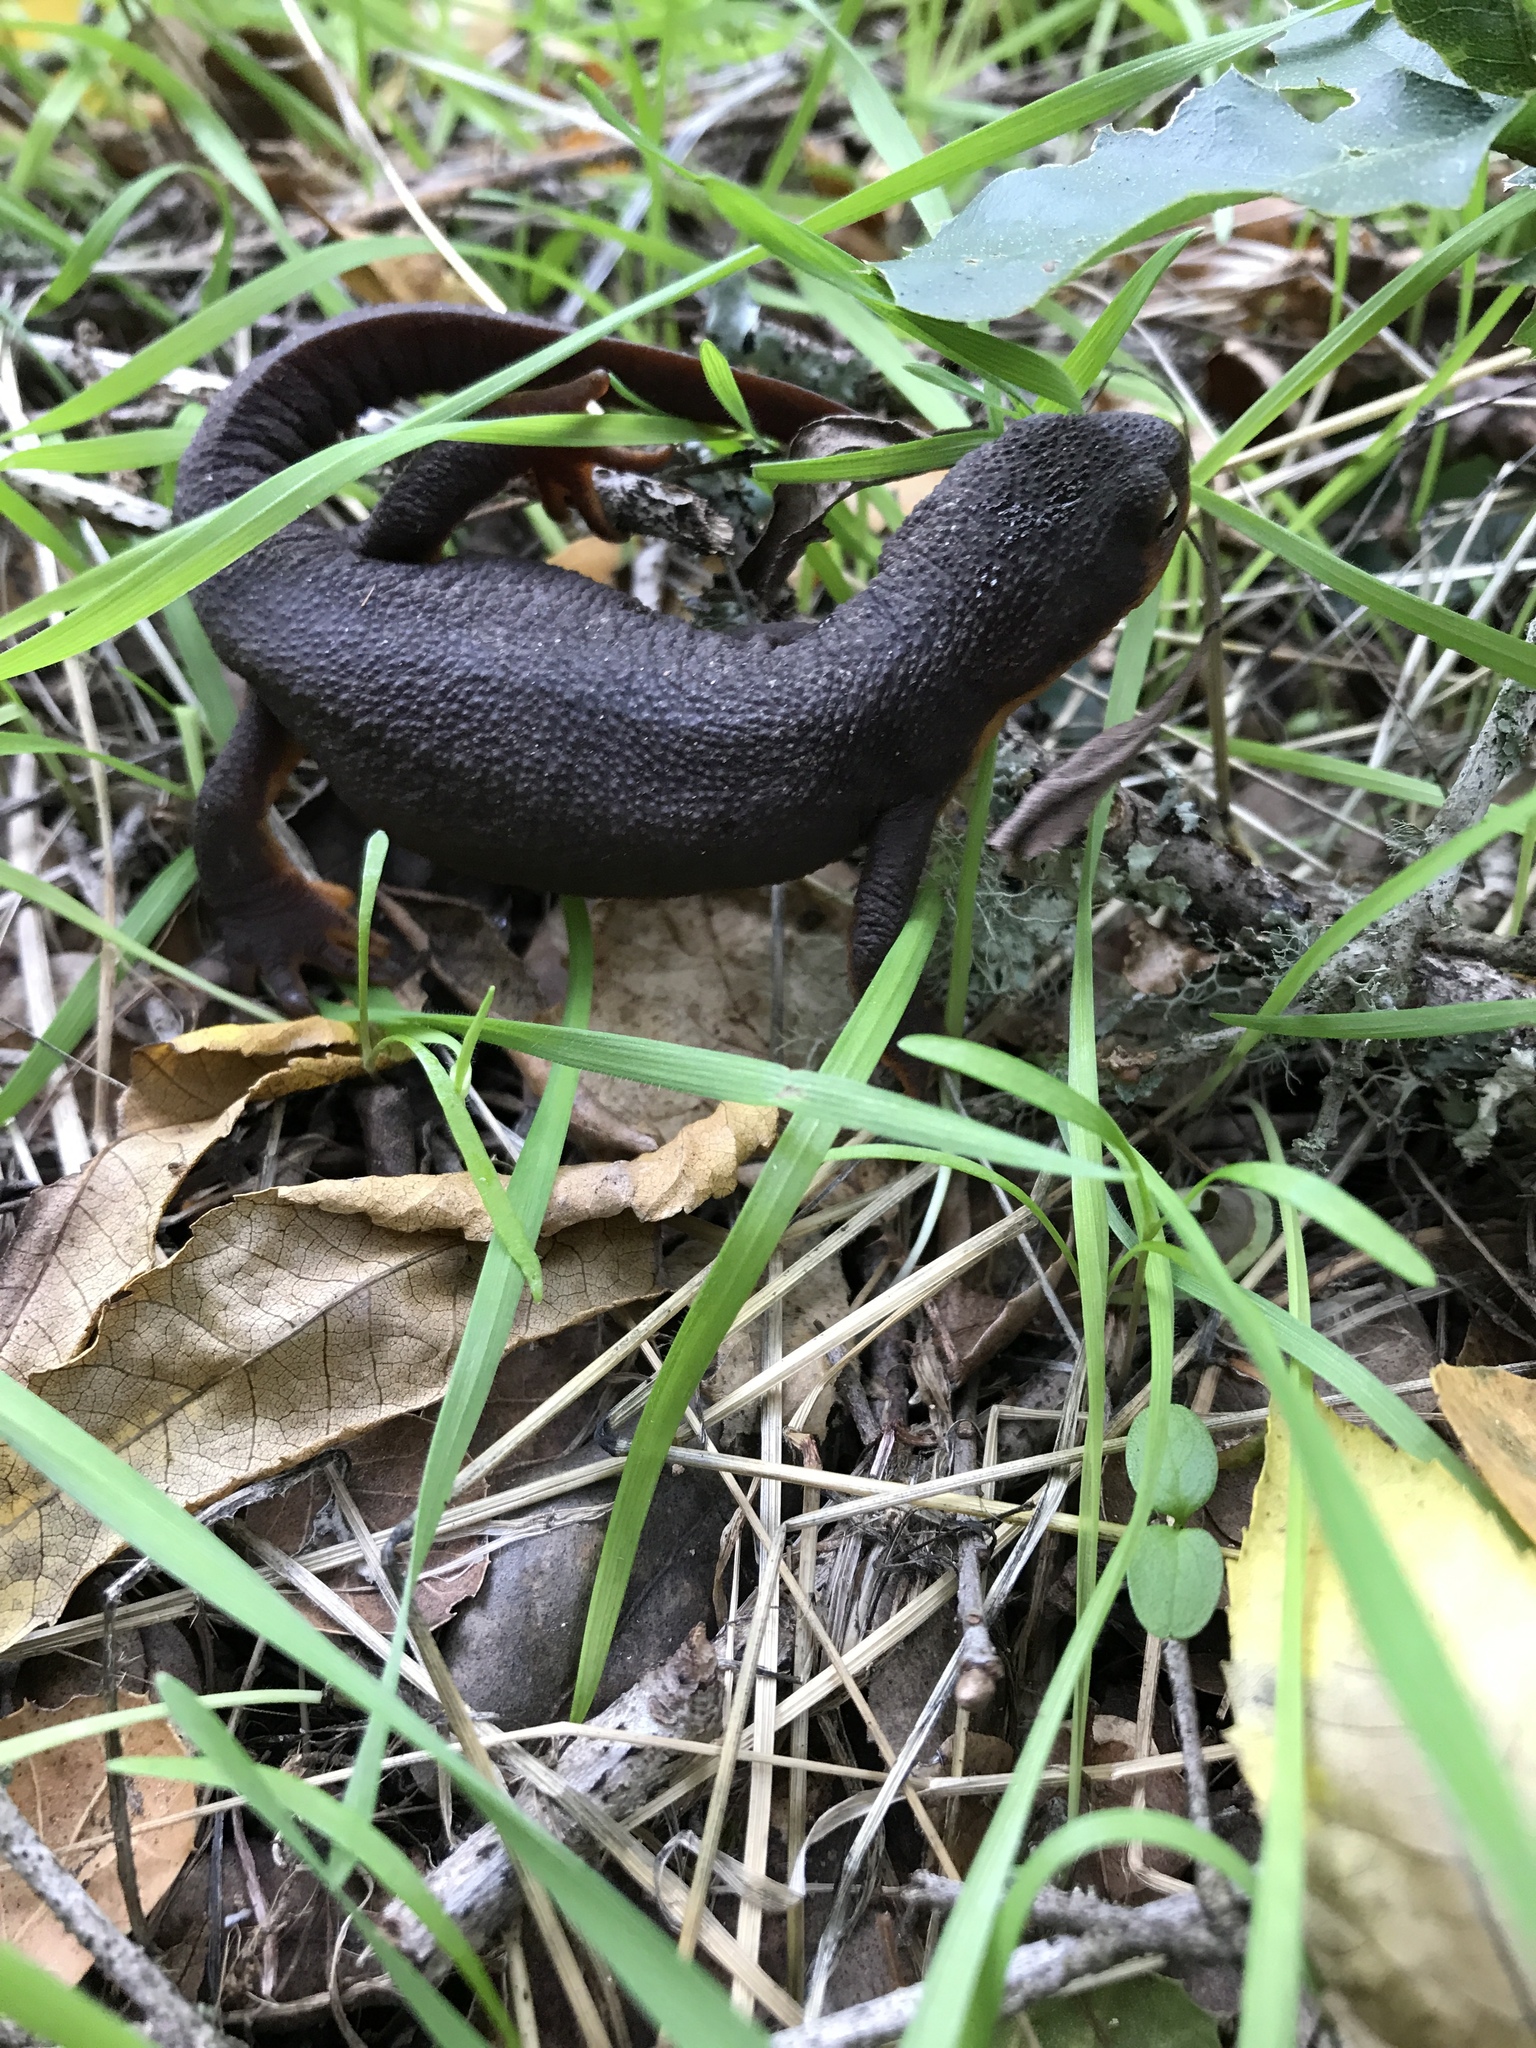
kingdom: Animalia
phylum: Chordata
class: Amphibia
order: Caudata
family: Salamandridae
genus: Taricha
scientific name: Taricha granulosa
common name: Roughskin newt
